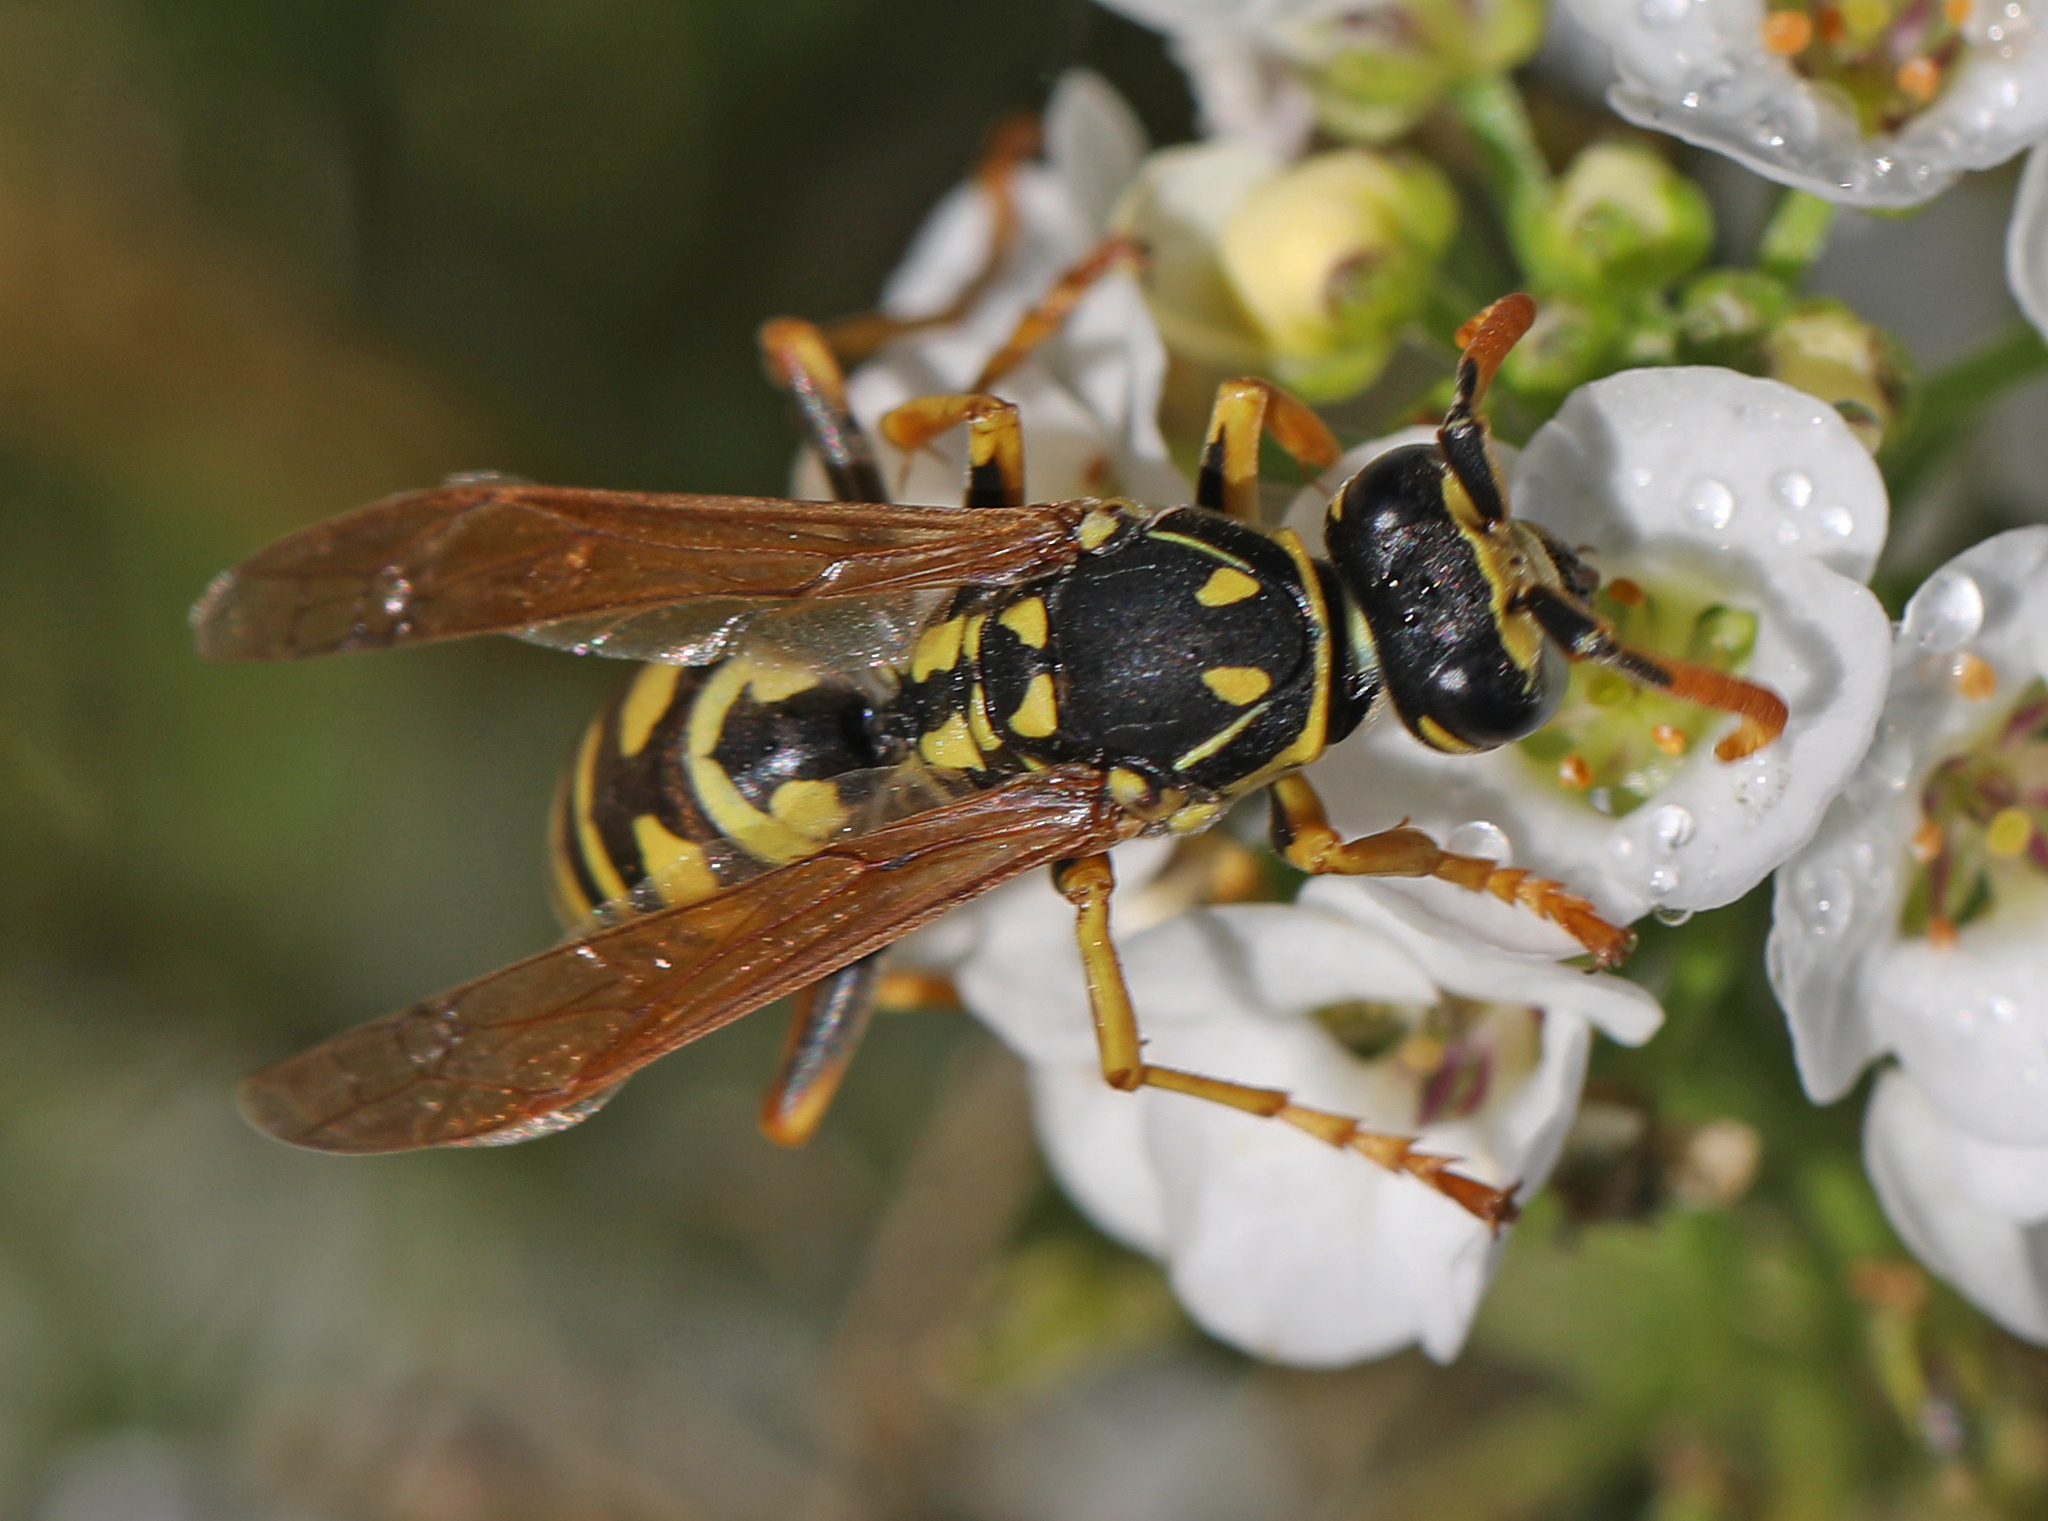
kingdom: Animalia
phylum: Arthropoda
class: Insecta
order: Hymenoptera
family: Eumenidae
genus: Polistes
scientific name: Polistes dominula
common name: Paper wasp
